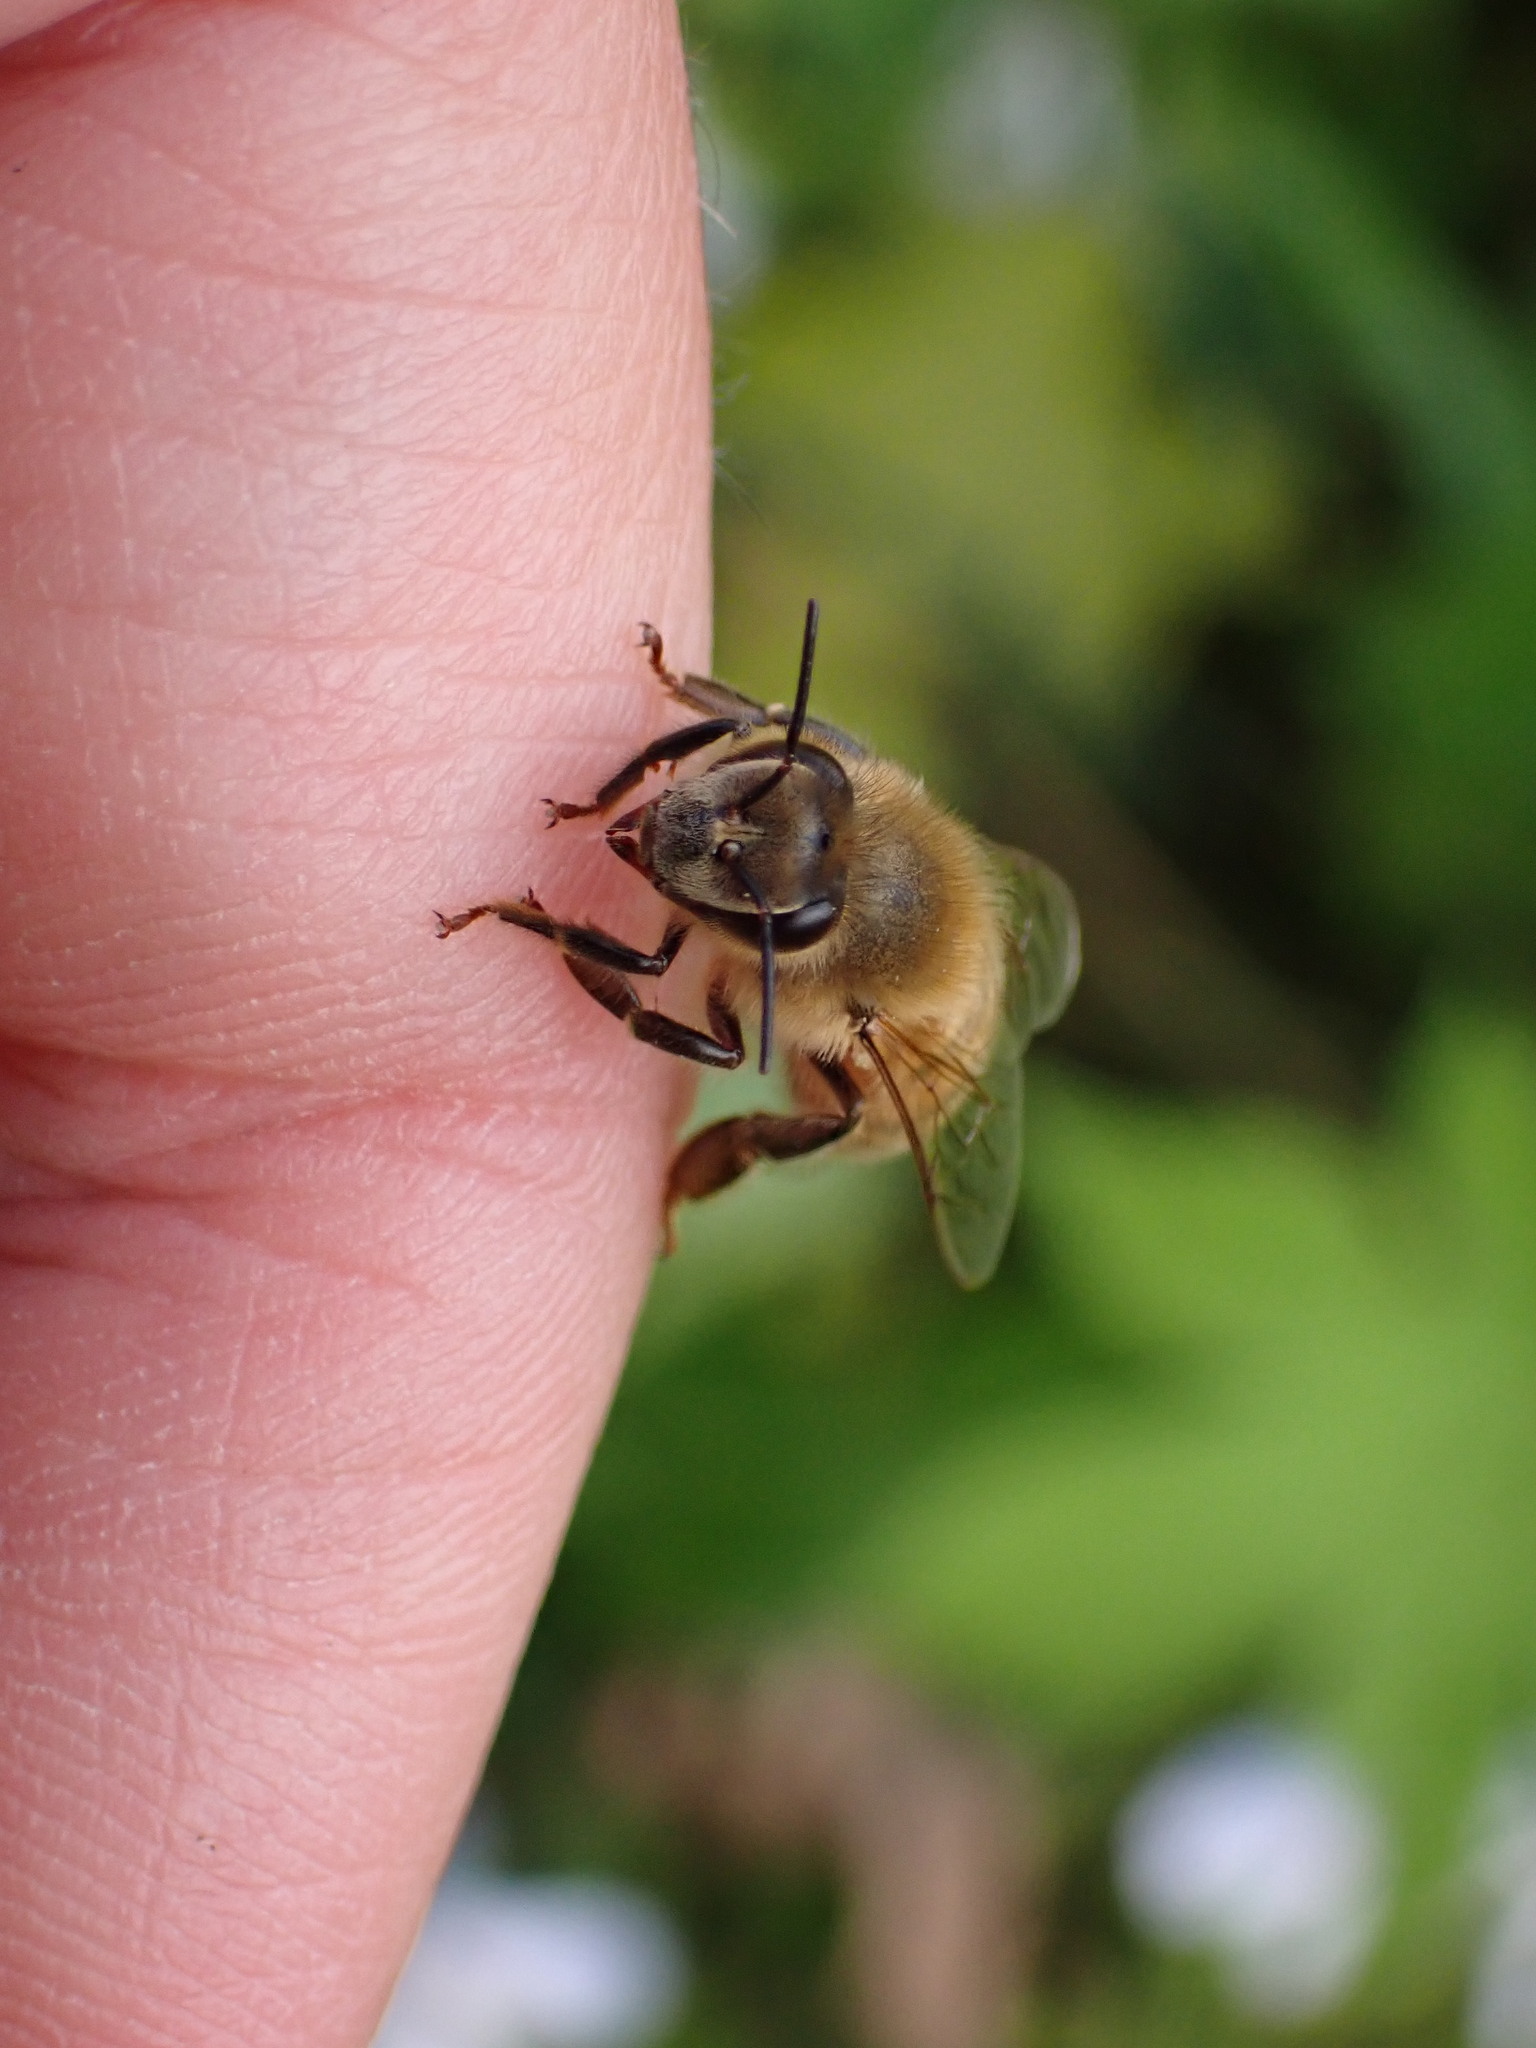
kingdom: Animalia
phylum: Arthropoda
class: Insecta
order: Hymenoptera
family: Apidae
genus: Apis
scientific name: Apis mellifera
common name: Honey bee
